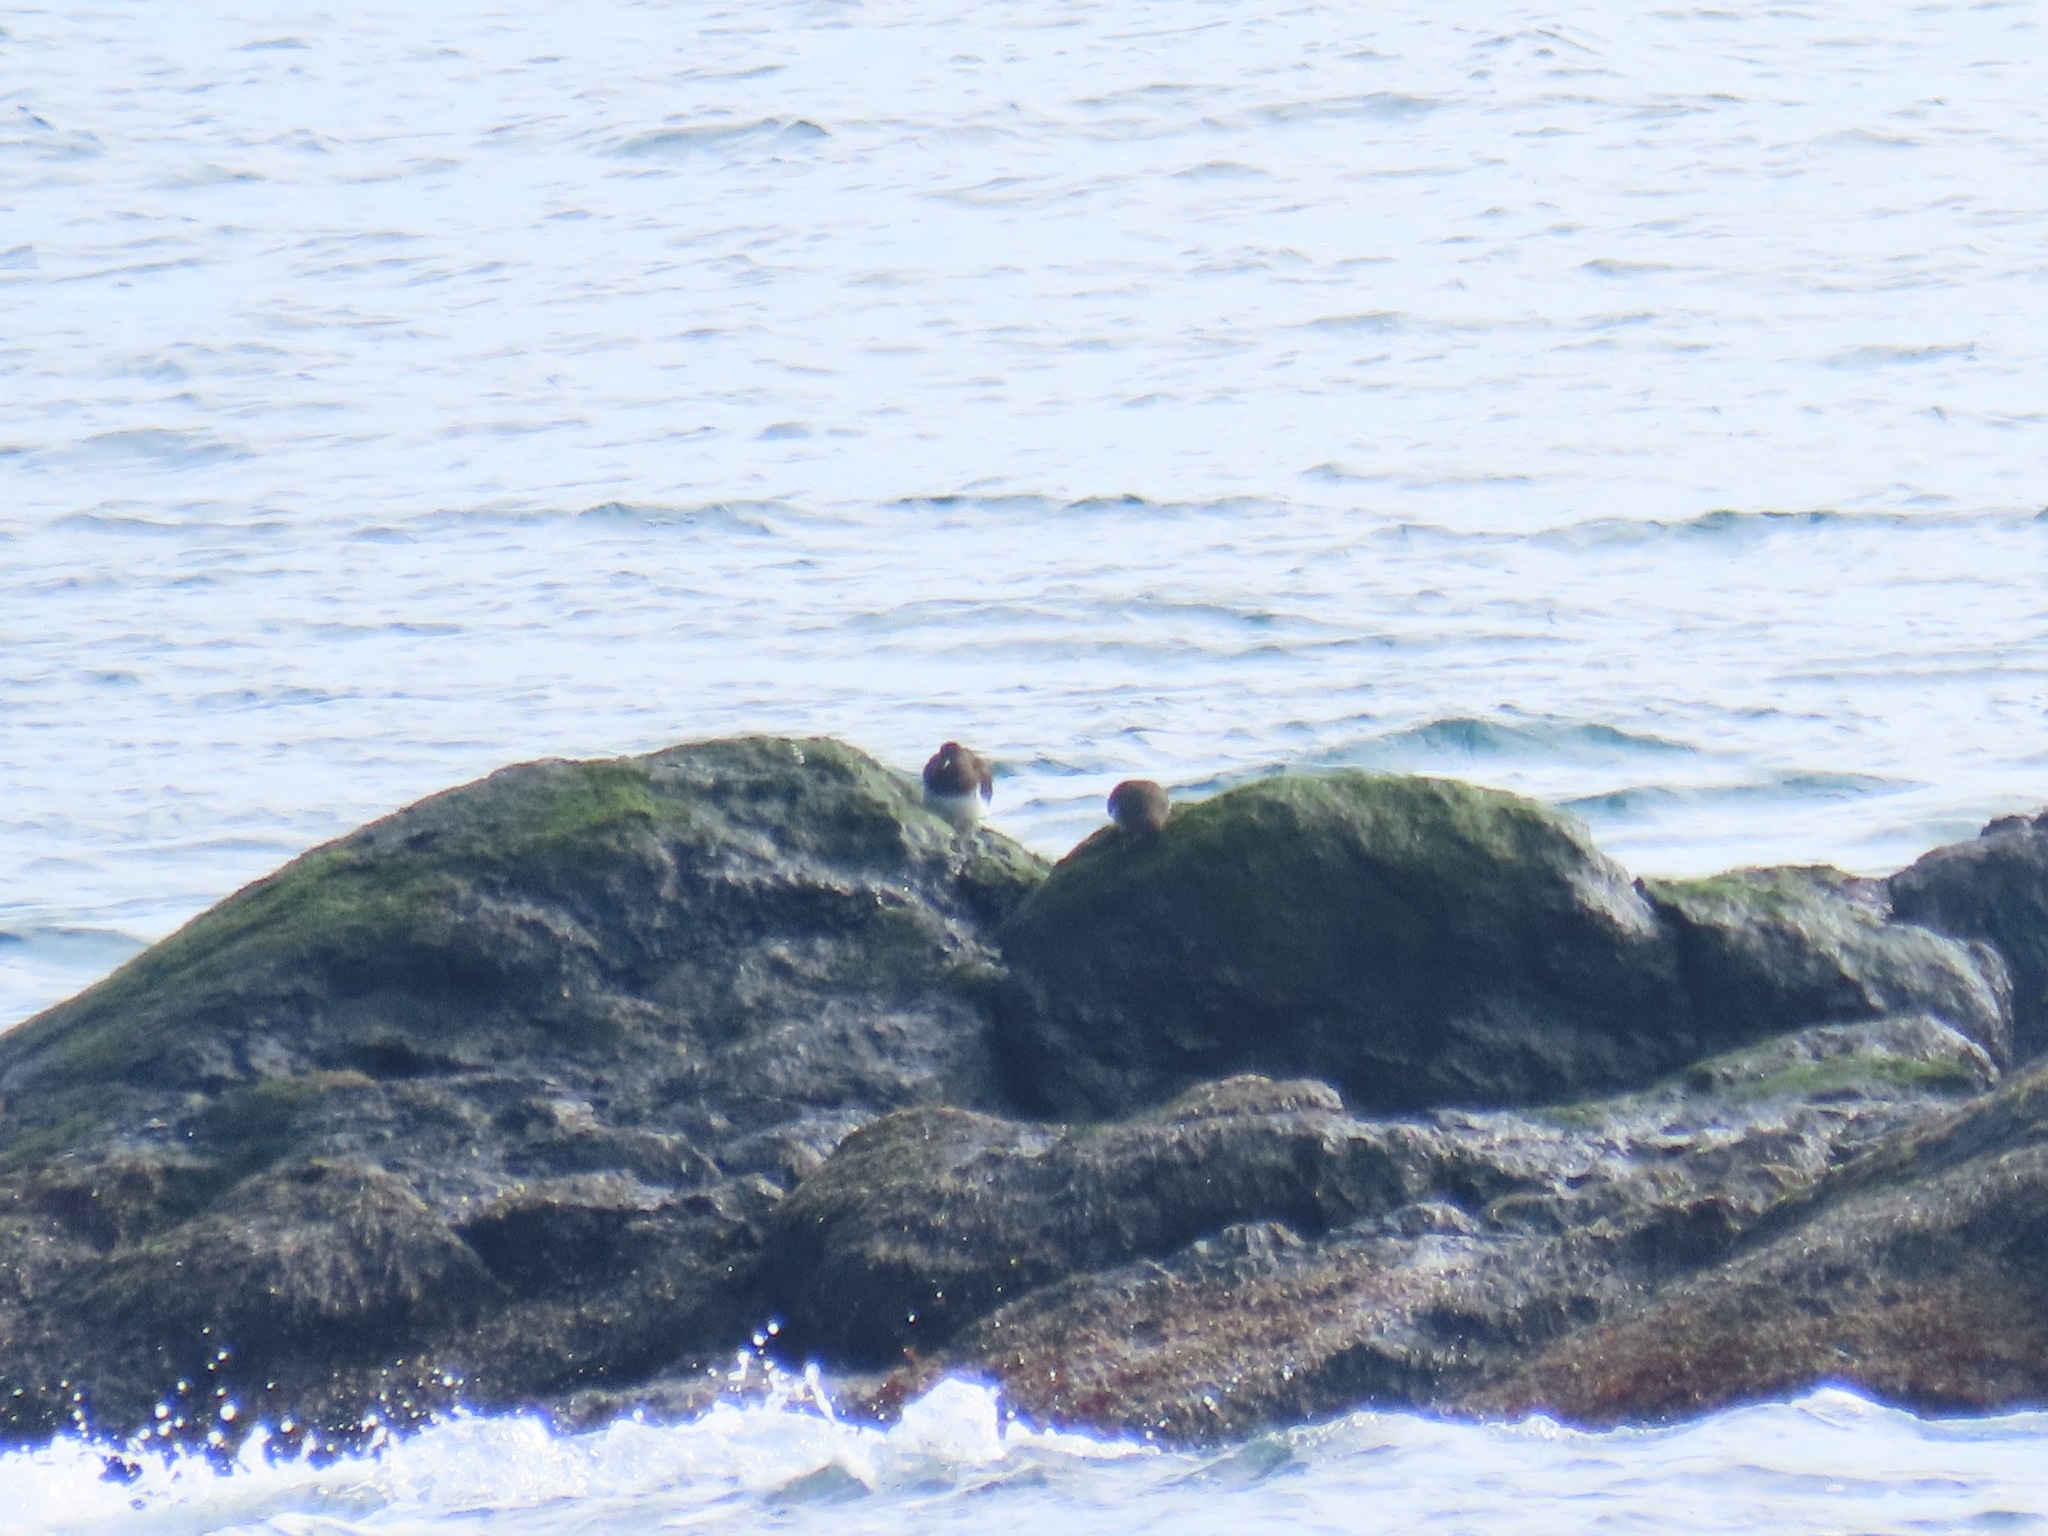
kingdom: Animalia
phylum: Chordata
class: Aves
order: Charadriiformes
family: Scolopacidae
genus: Arenaria
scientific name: Arenaria melanocephala
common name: Black turnstone
